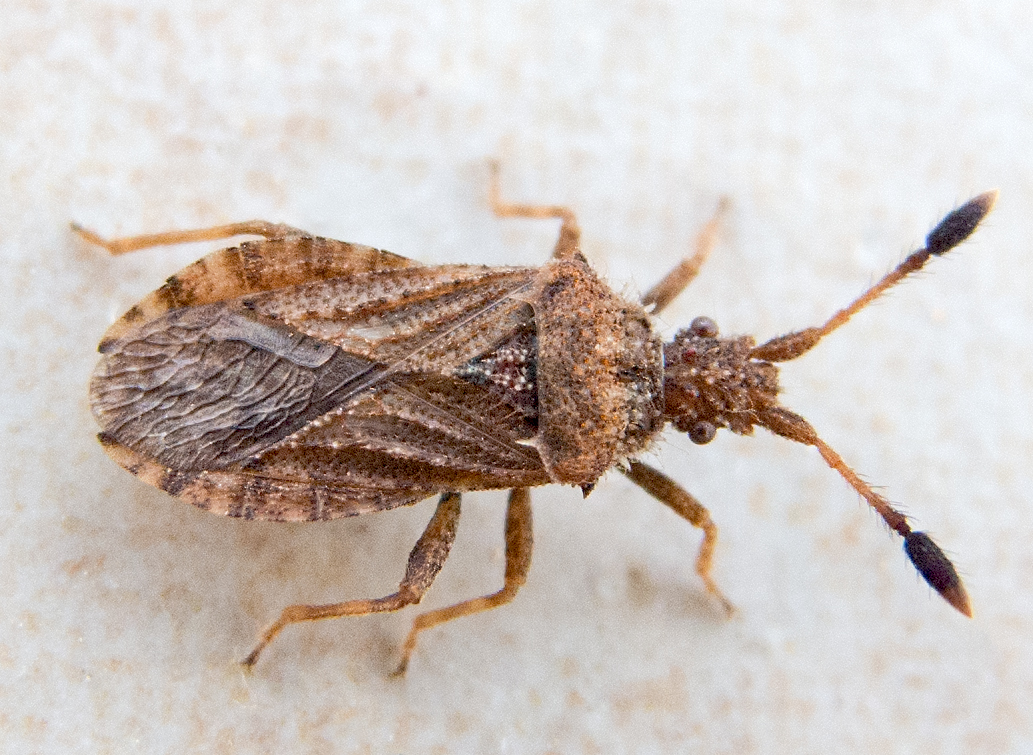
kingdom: Animalia
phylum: Arthropoda
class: Insecta
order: Hemiptera
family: Coreidae
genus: Strobilotoma
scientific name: Strobilotoma typhaecornis
